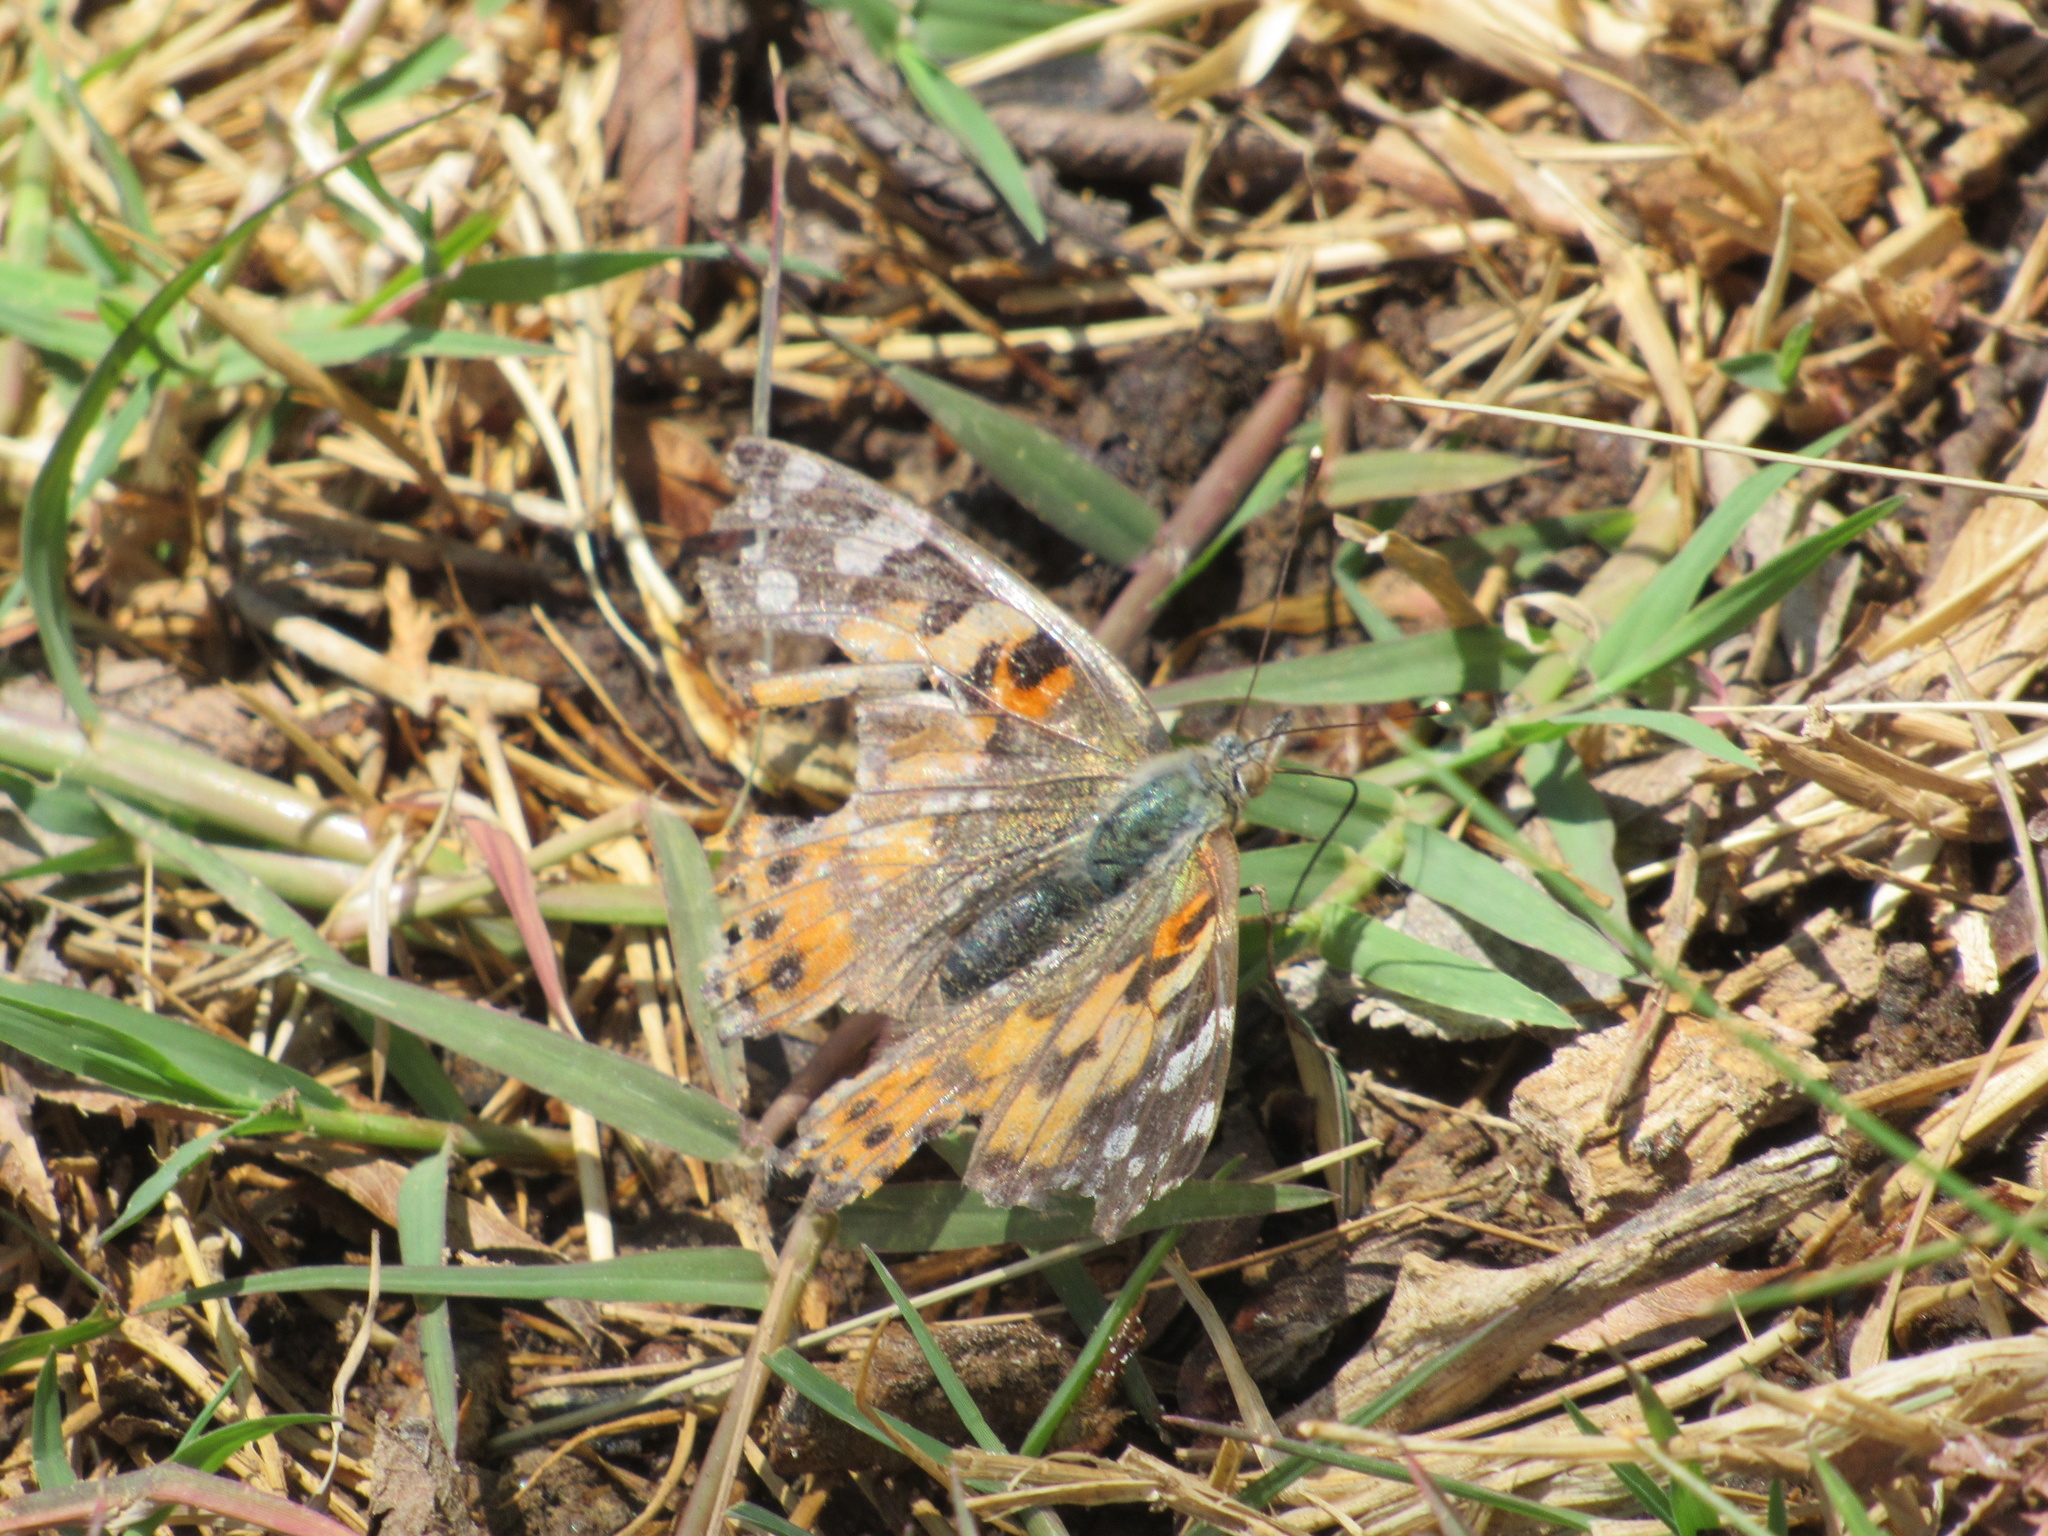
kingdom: Animalia
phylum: Arthropoda
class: Insecta
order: Lepidoptera
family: Nymphalidae
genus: Vanessa
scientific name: Vanessa cardui
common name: Painted lady
